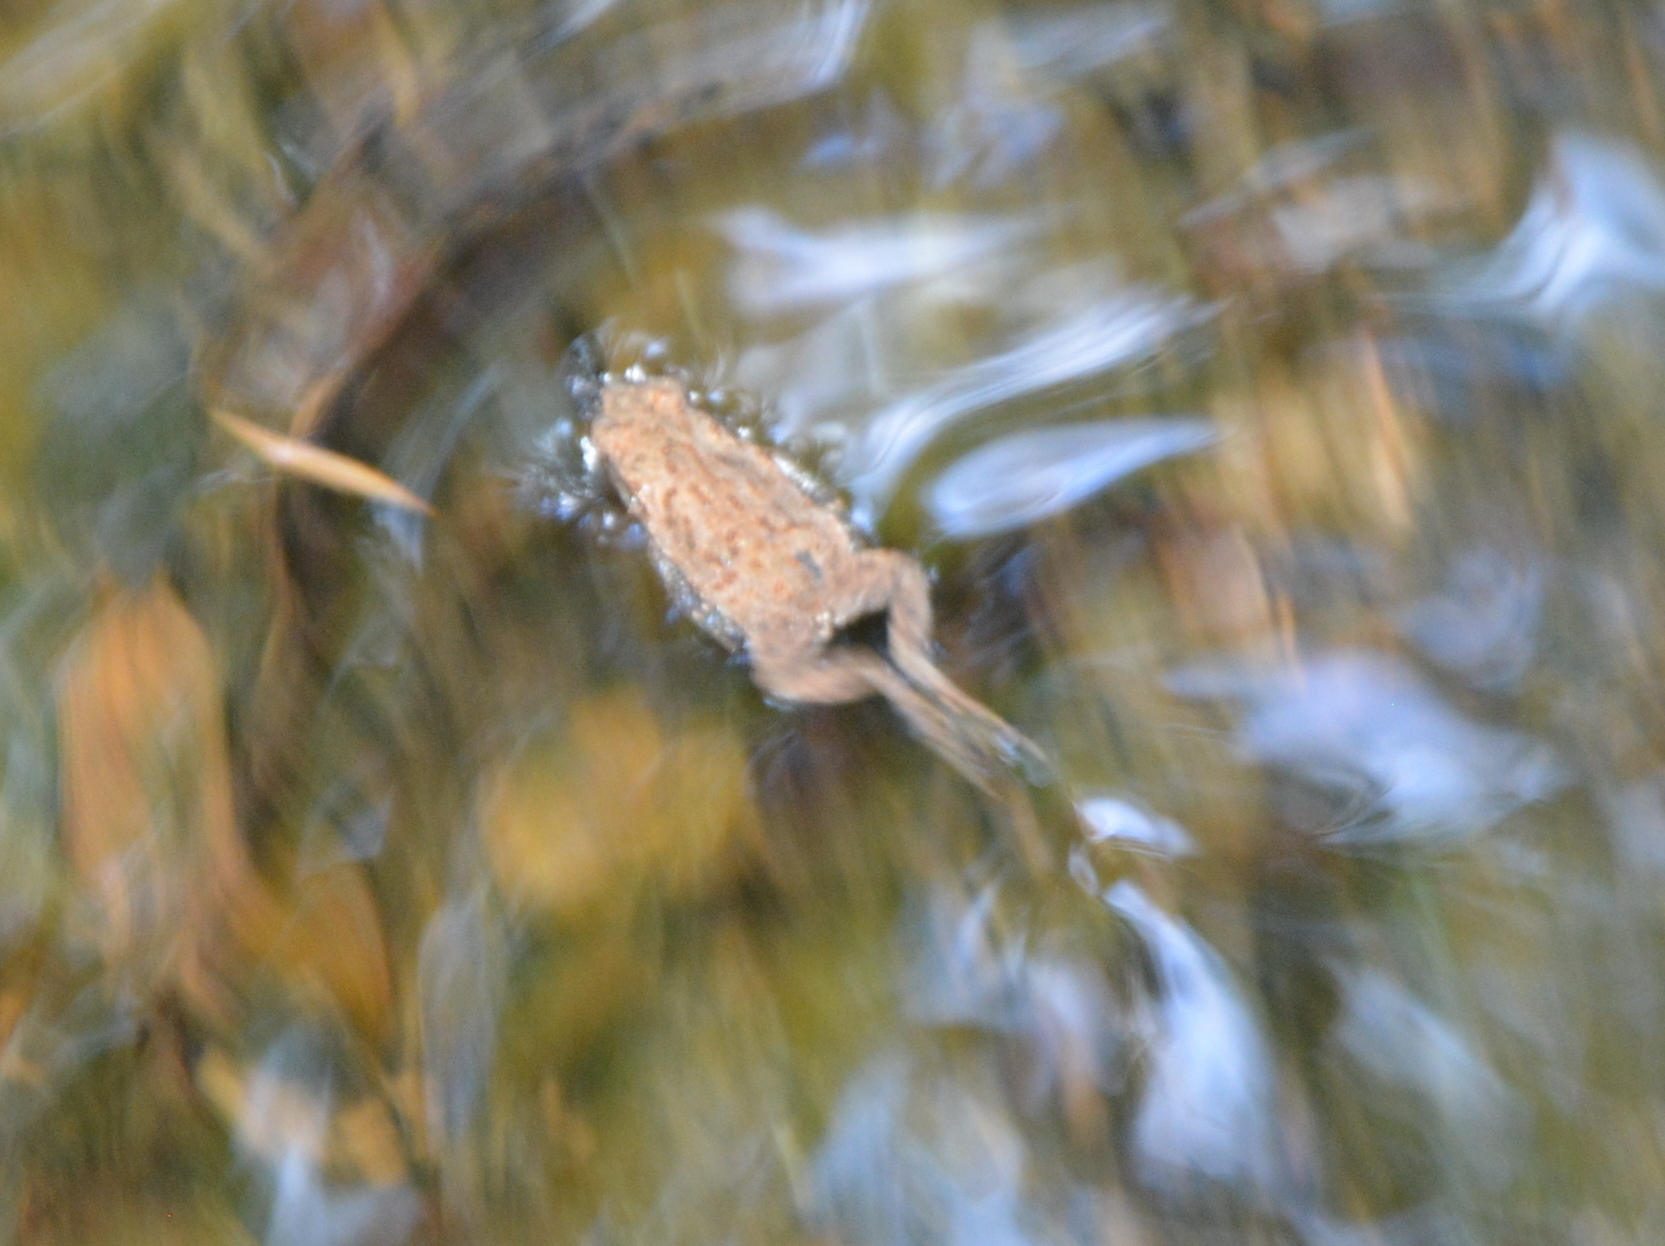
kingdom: Animalia
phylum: Chordata
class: Amphibia
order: Anura
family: Bufonidae
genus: Bufo
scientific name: Bufo bufo
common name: Common toad
